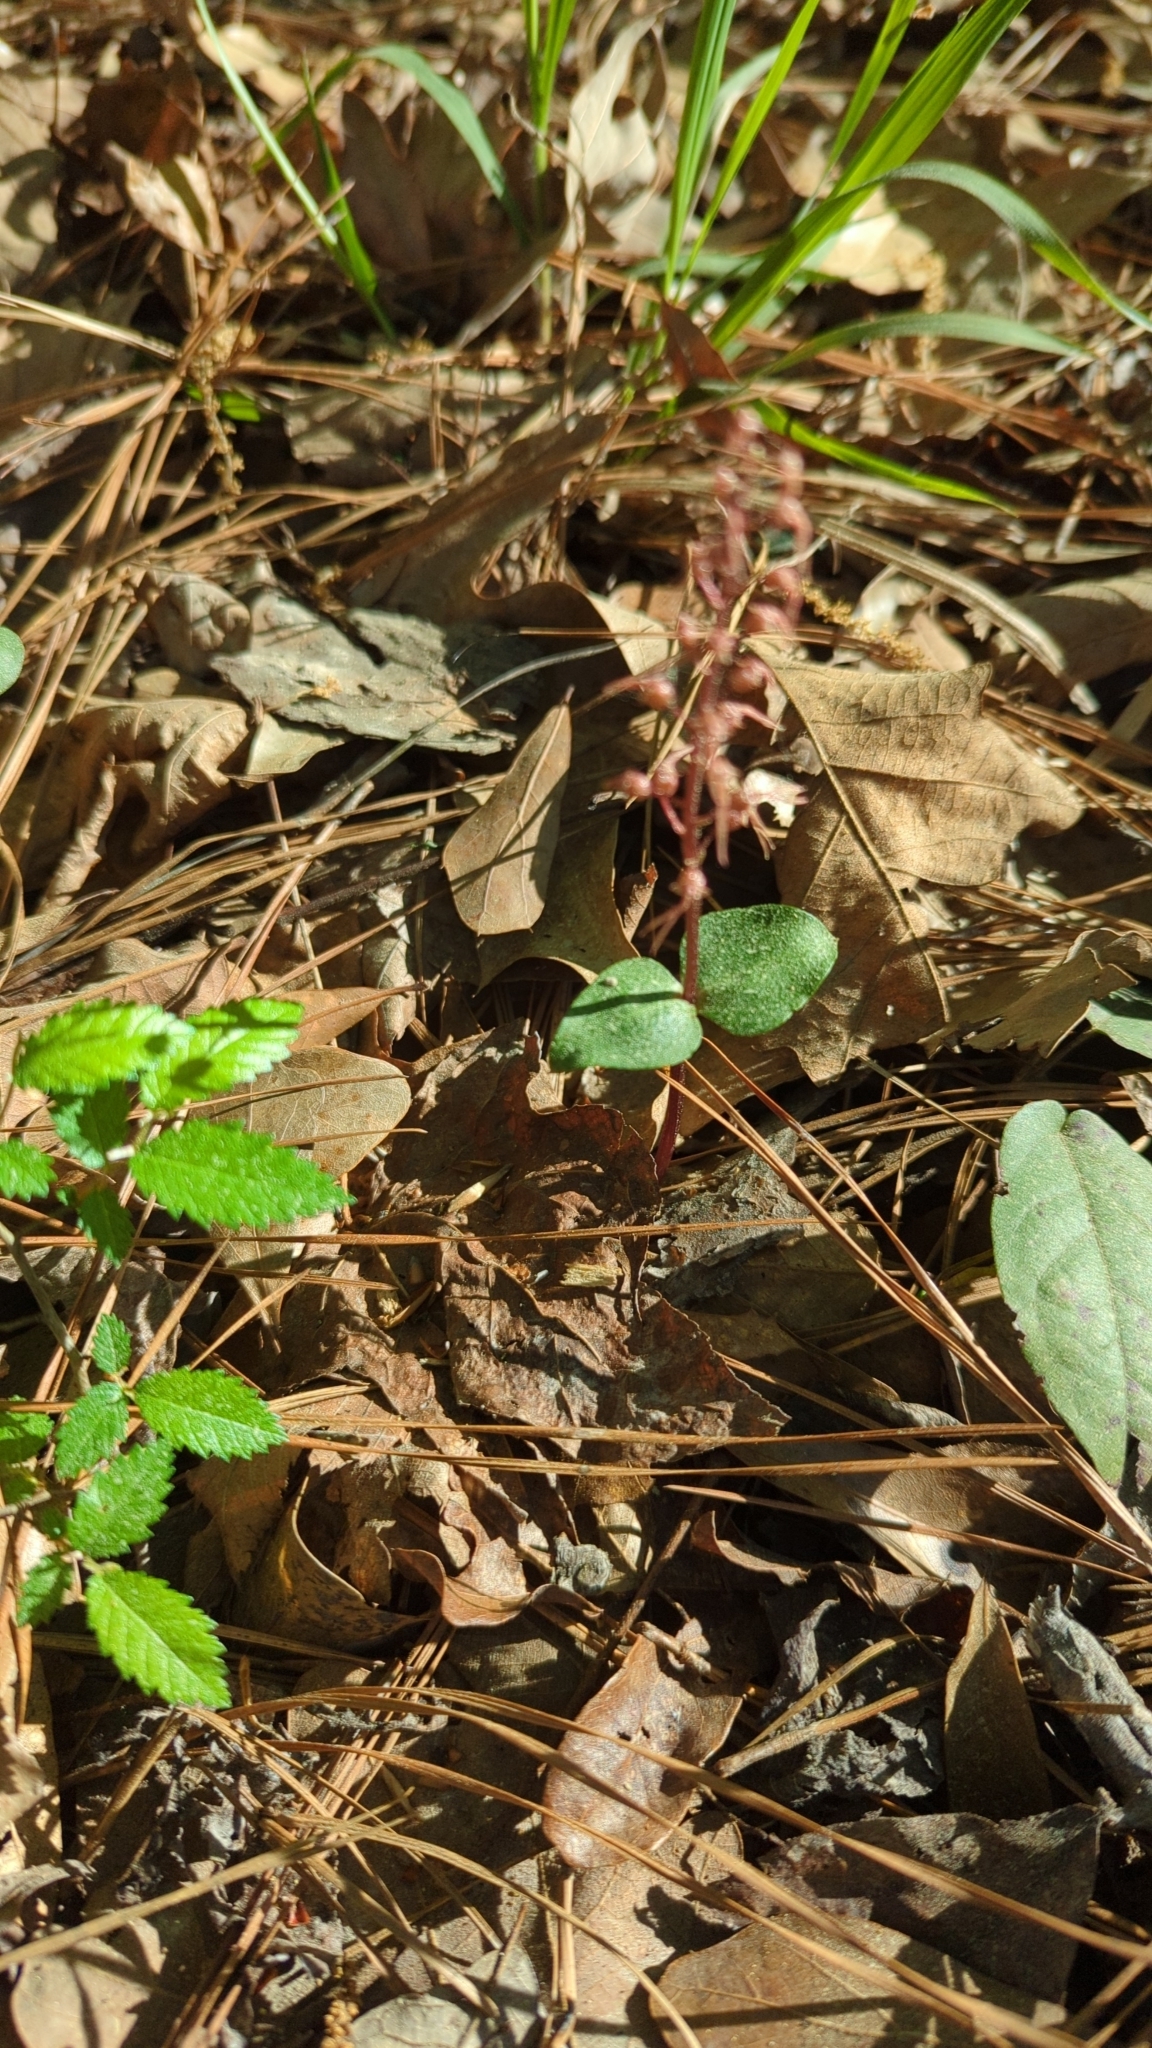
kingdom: Plantae
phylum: Tracheophyta
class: Liliopsida
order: Asparagales
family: Orchidaceae
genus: Neottia
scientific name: Neottia bifolia
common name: Southern twayblade
